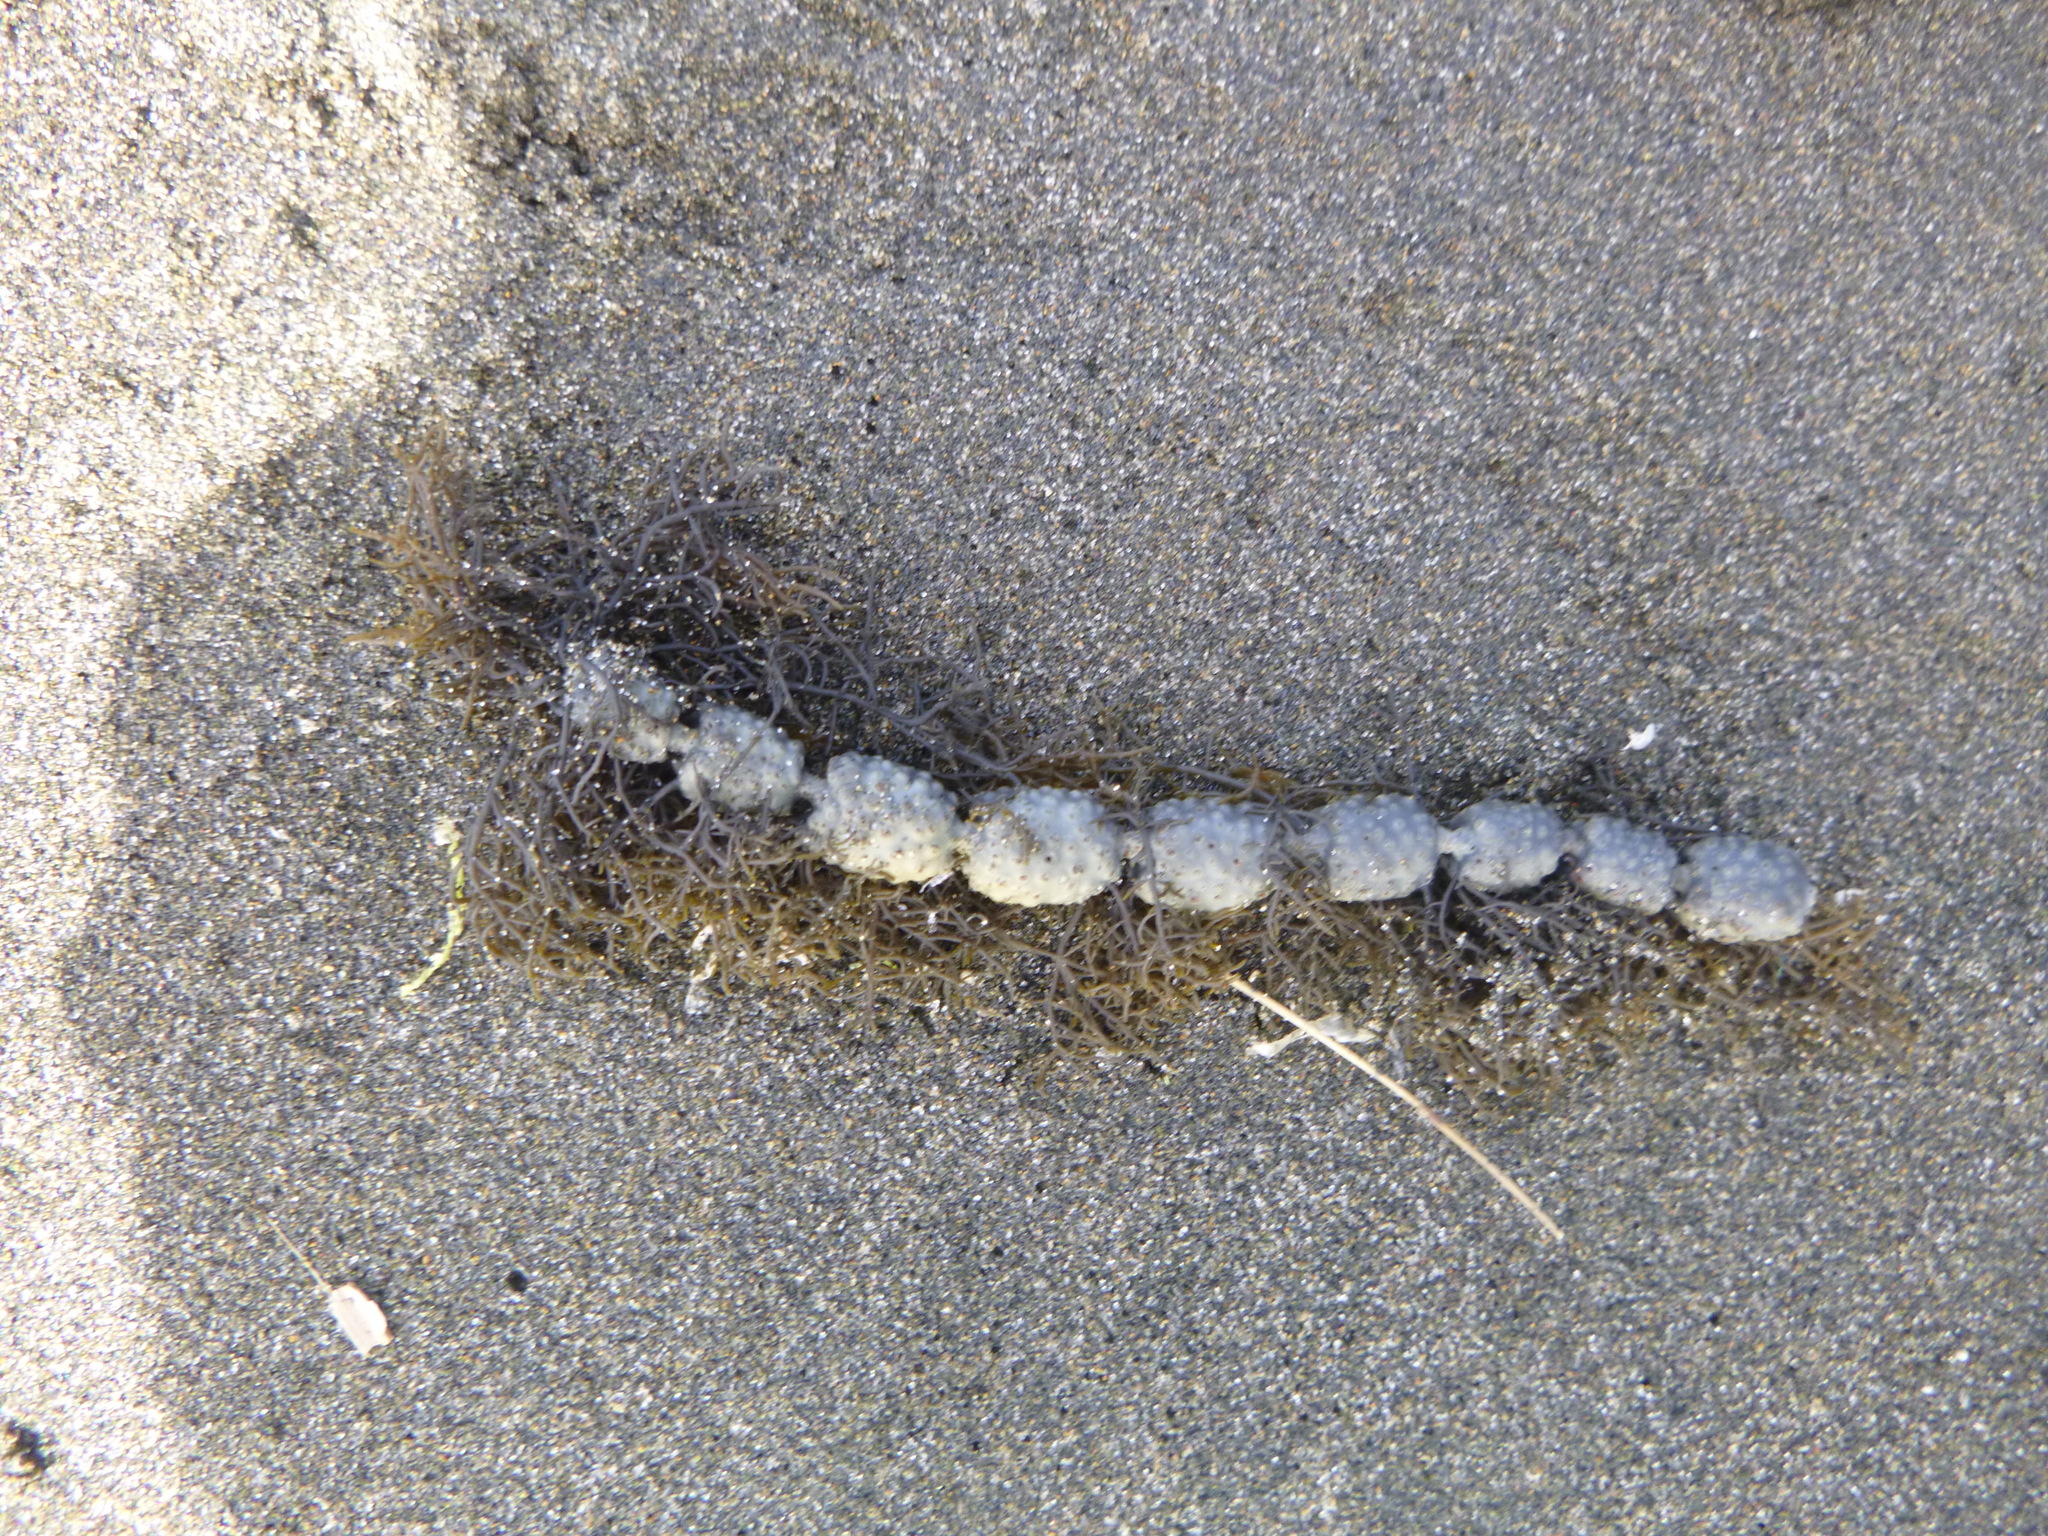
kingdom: Chromista
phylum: Ochrophyta
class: Phaeophyceae
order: Fucales
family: Hormosiraceae
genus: Hormosira
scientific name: Hormosira banksii
